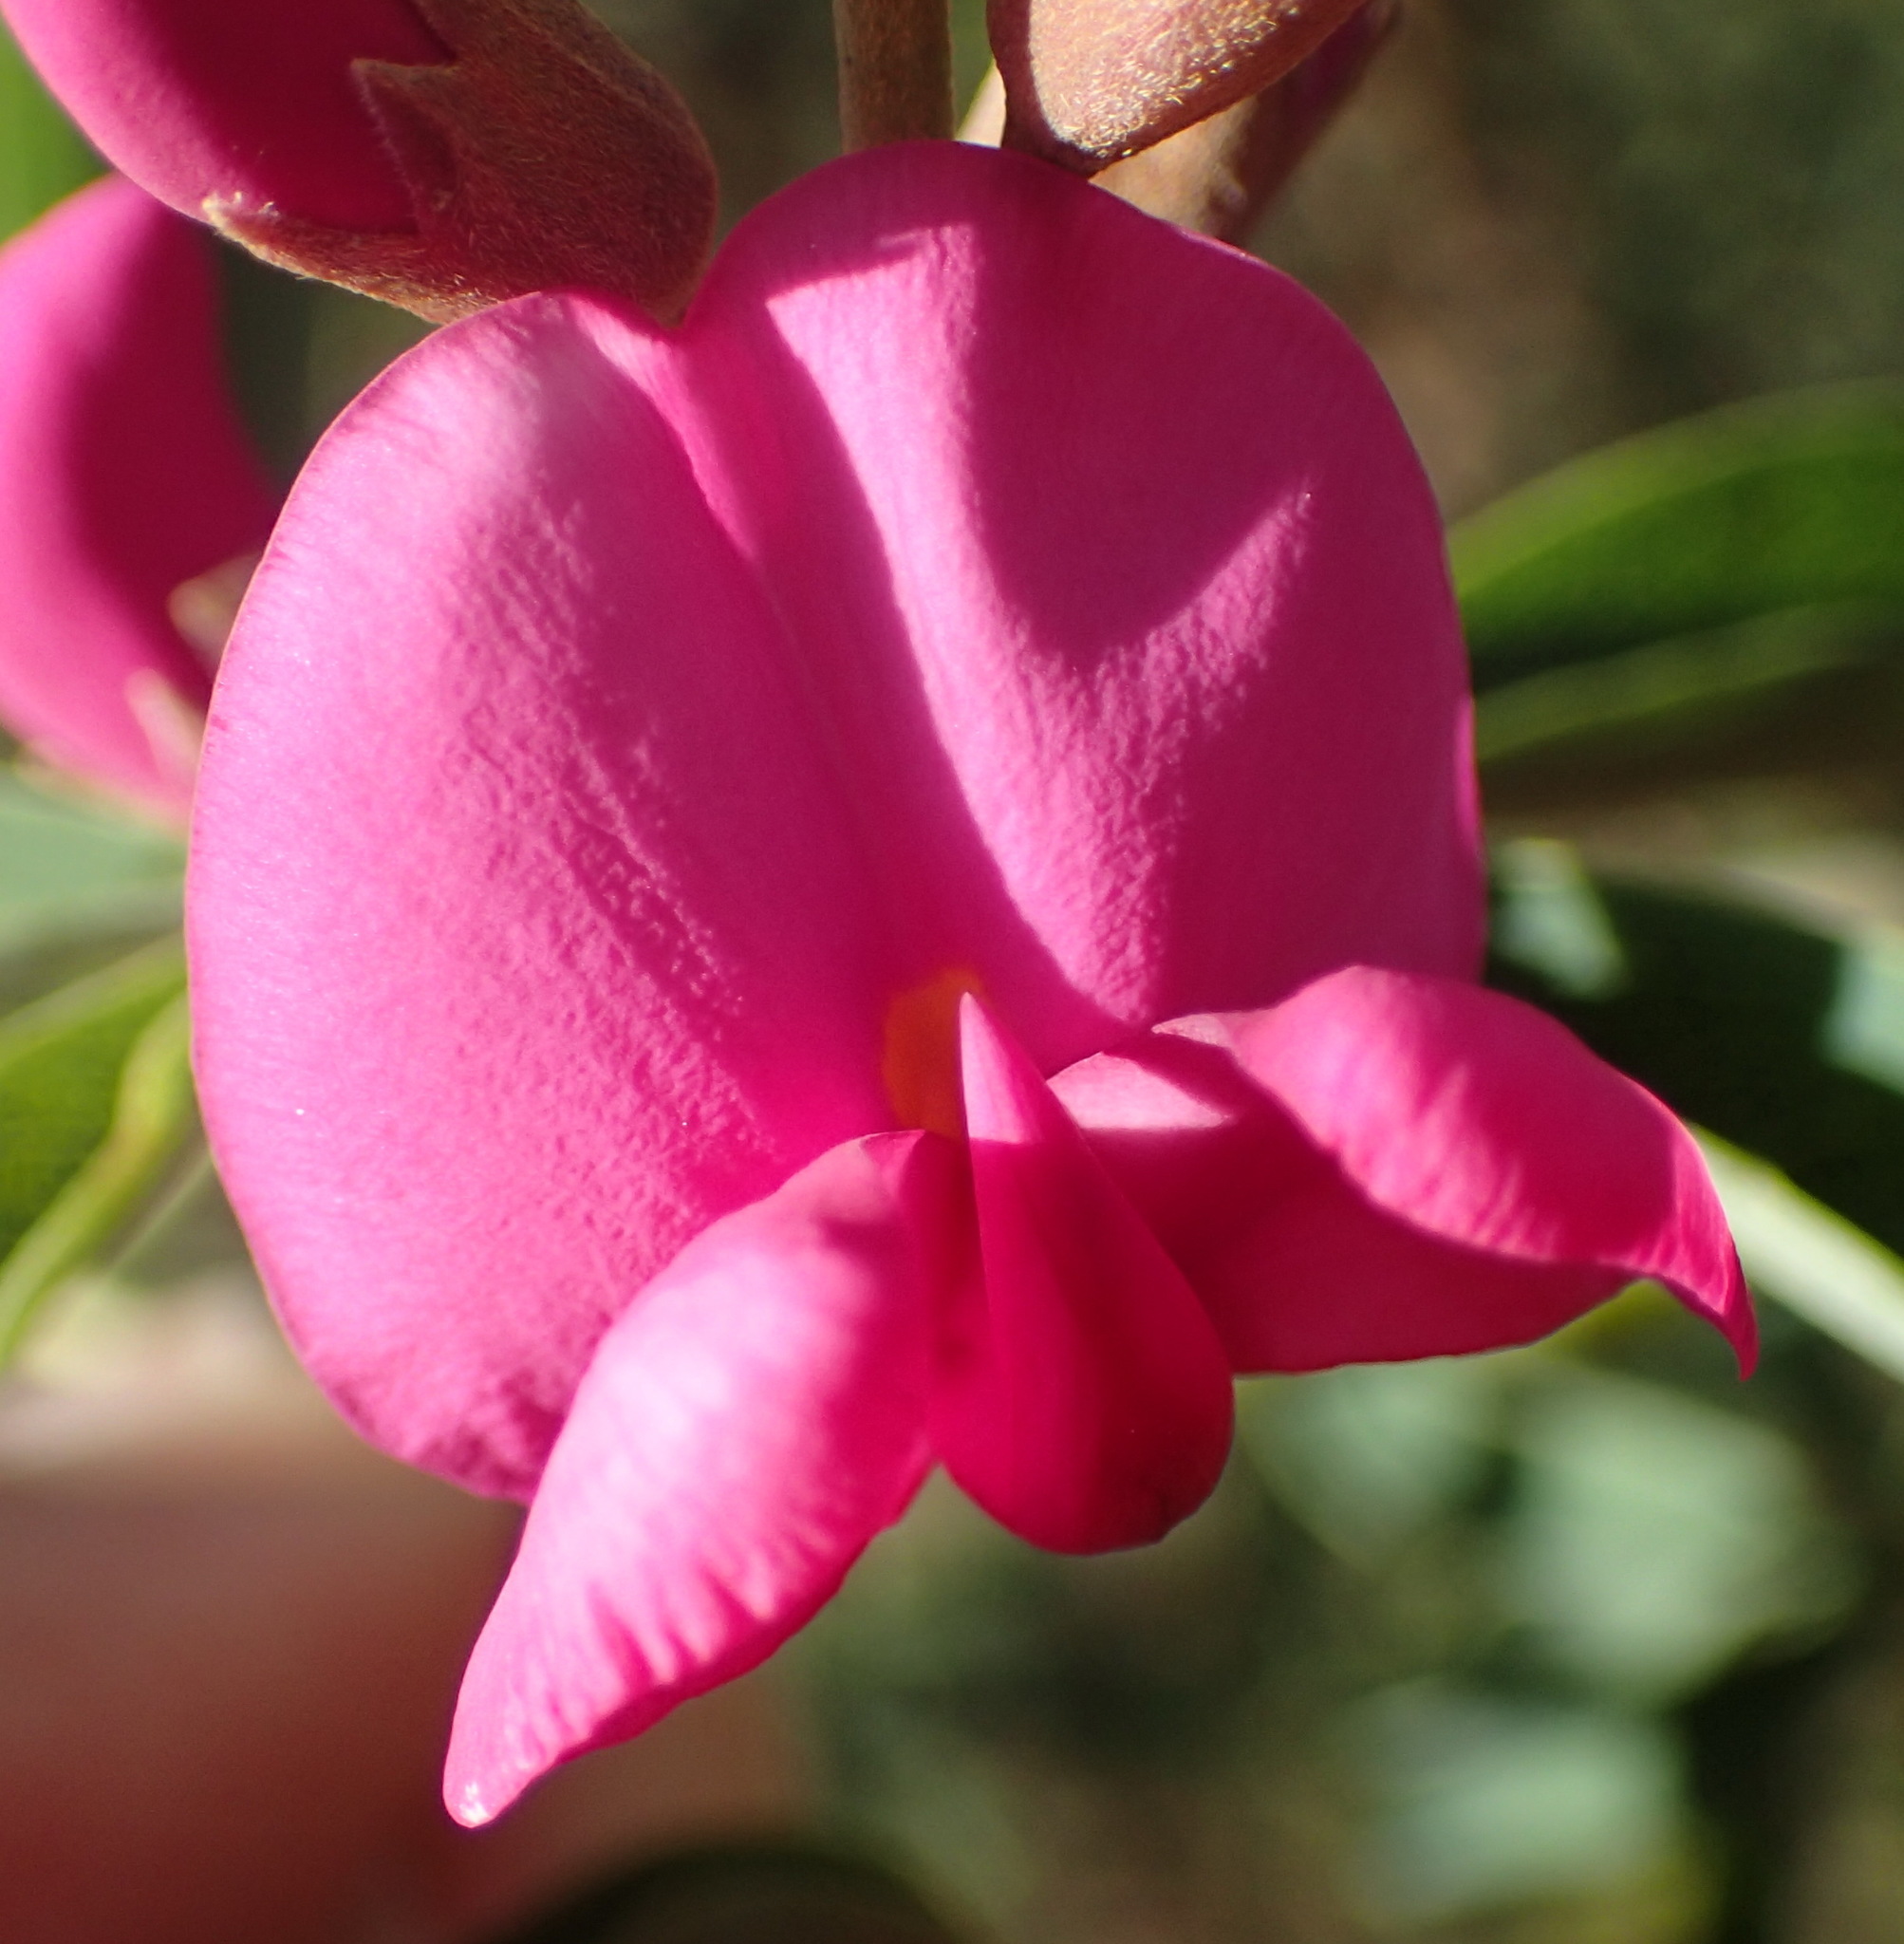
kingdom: Plantae
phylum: Tracheophyta
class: Magnoliopsida
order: Fabales
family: Fabaceae
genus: Hypocalyptus
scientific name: Hypocalyptus coluteoides
